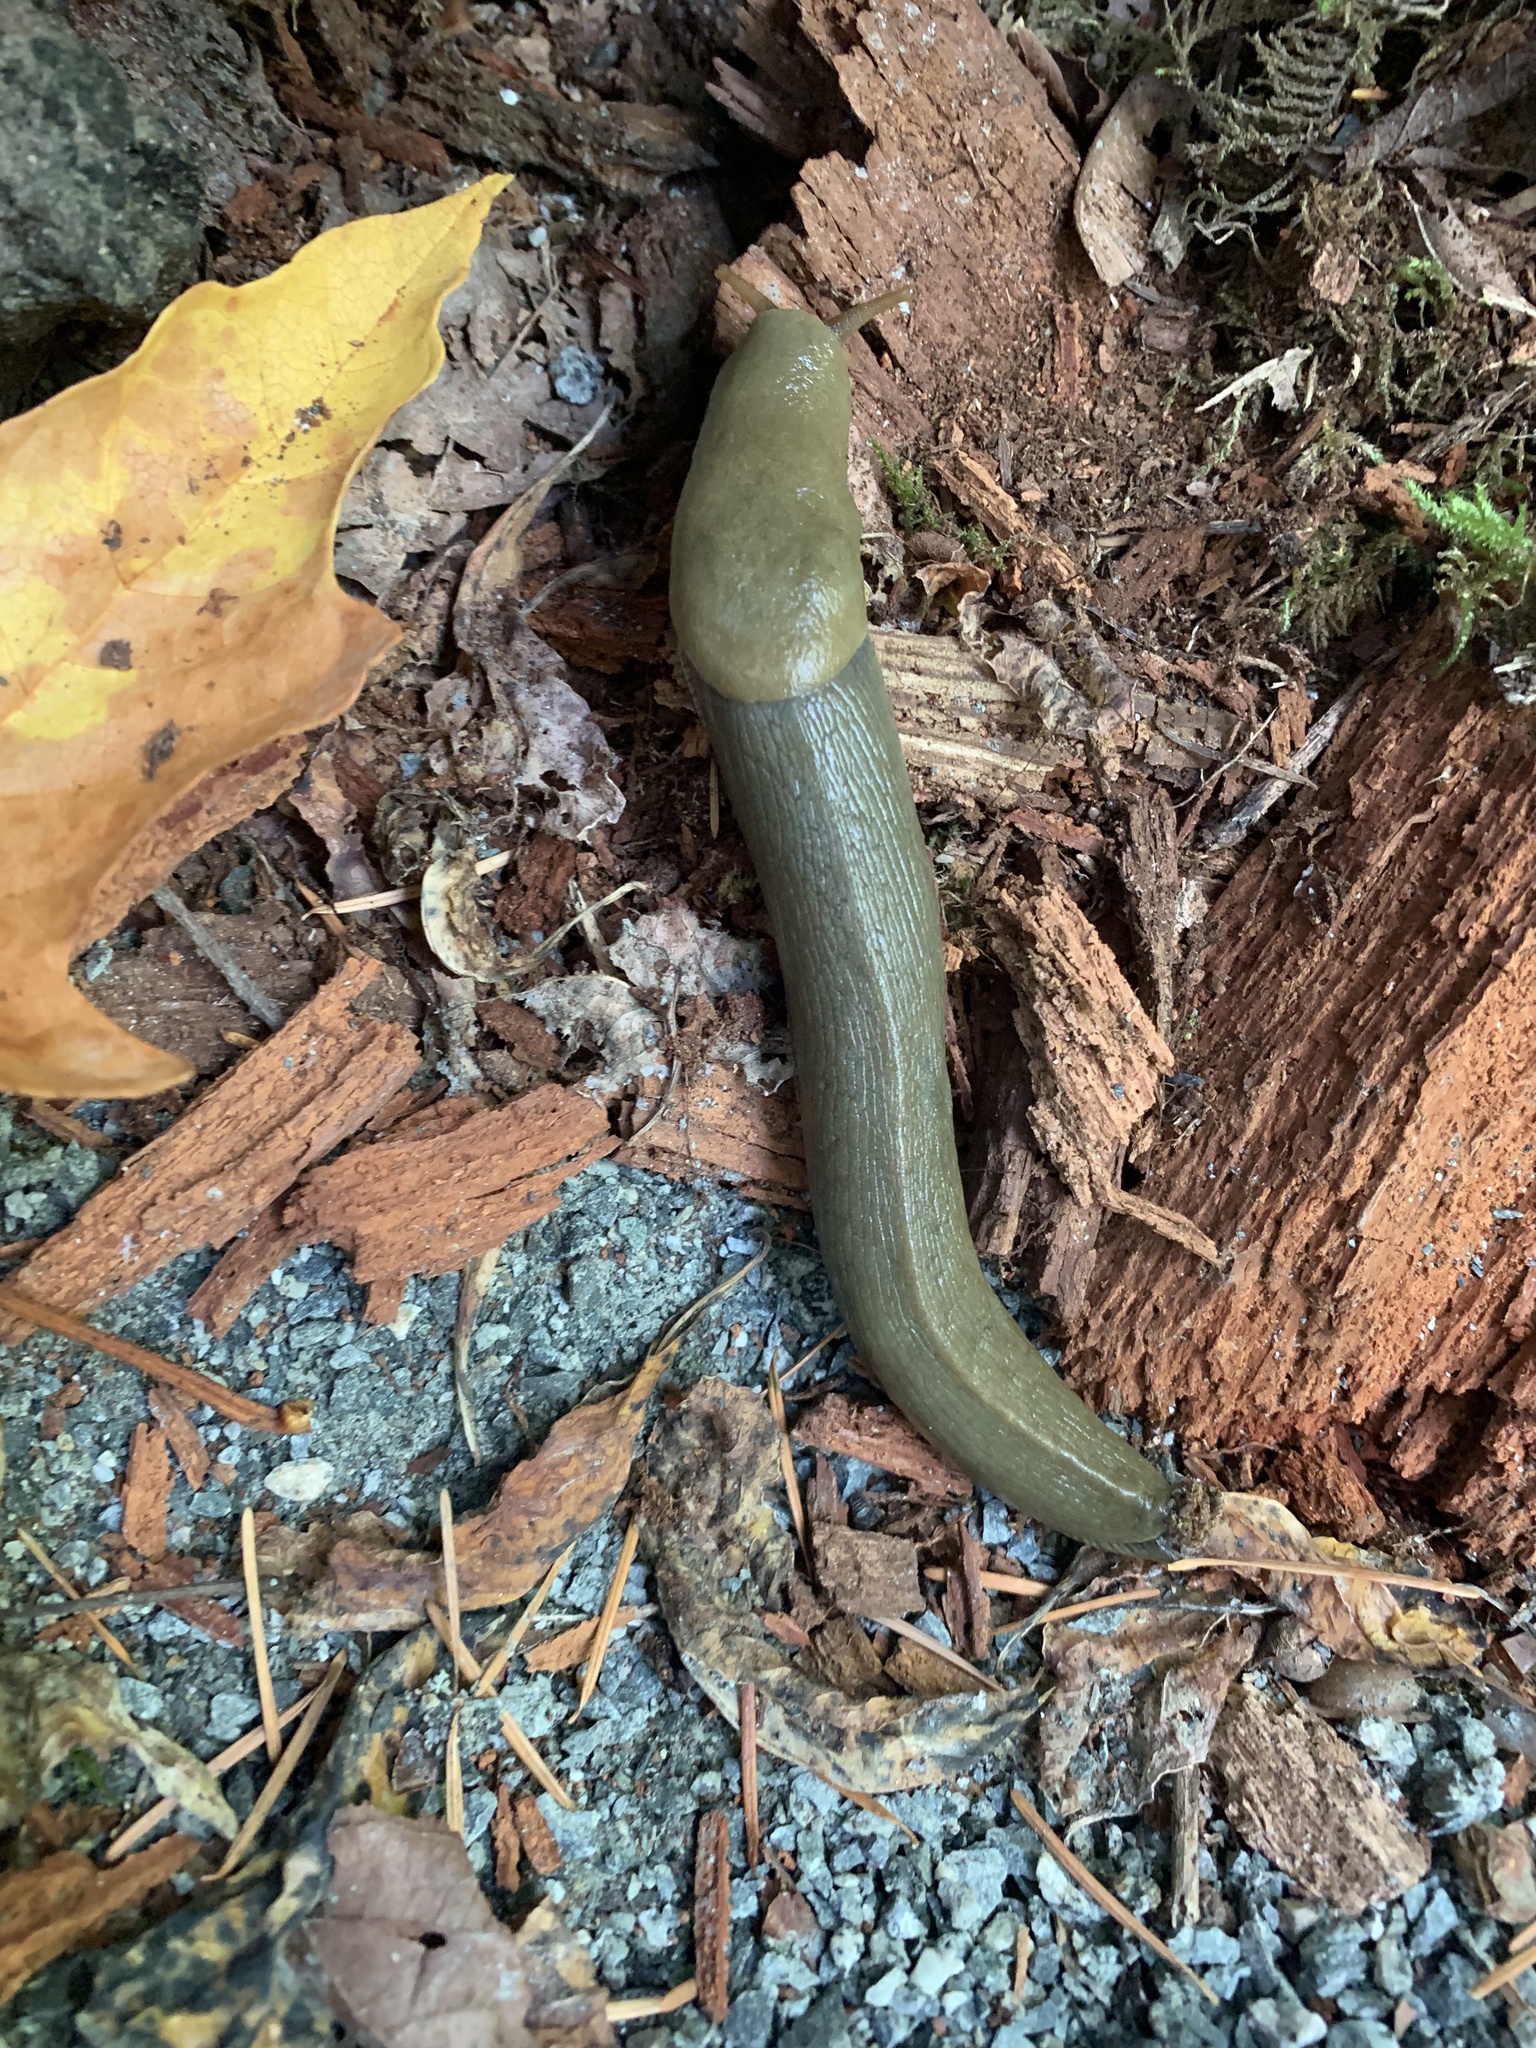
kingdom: Animalia
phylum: Mollusca
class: Gastropoda
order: Stylommatophora
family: Ariolimacidae
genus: Ariolimax
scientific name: Ariolimax columbianus
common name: Pacific banana slug
